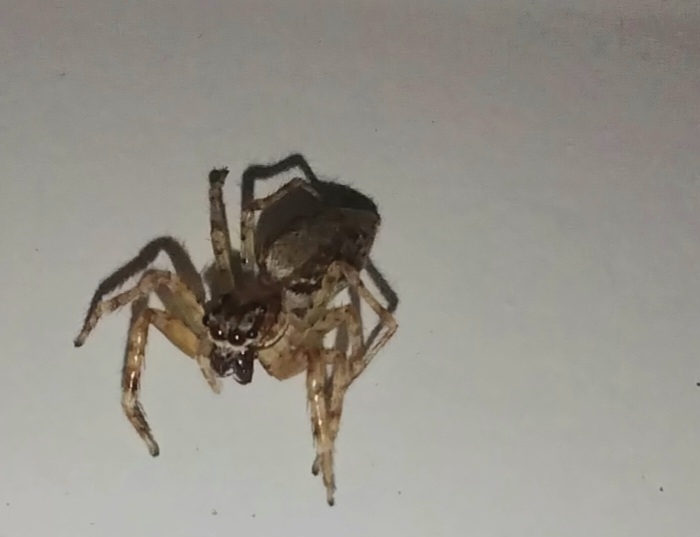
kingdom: Animalia
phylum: Arthropoda
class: Arachnida
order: Araneae
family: Salticidae
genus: Helpis
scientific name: Helpis minitabunda
